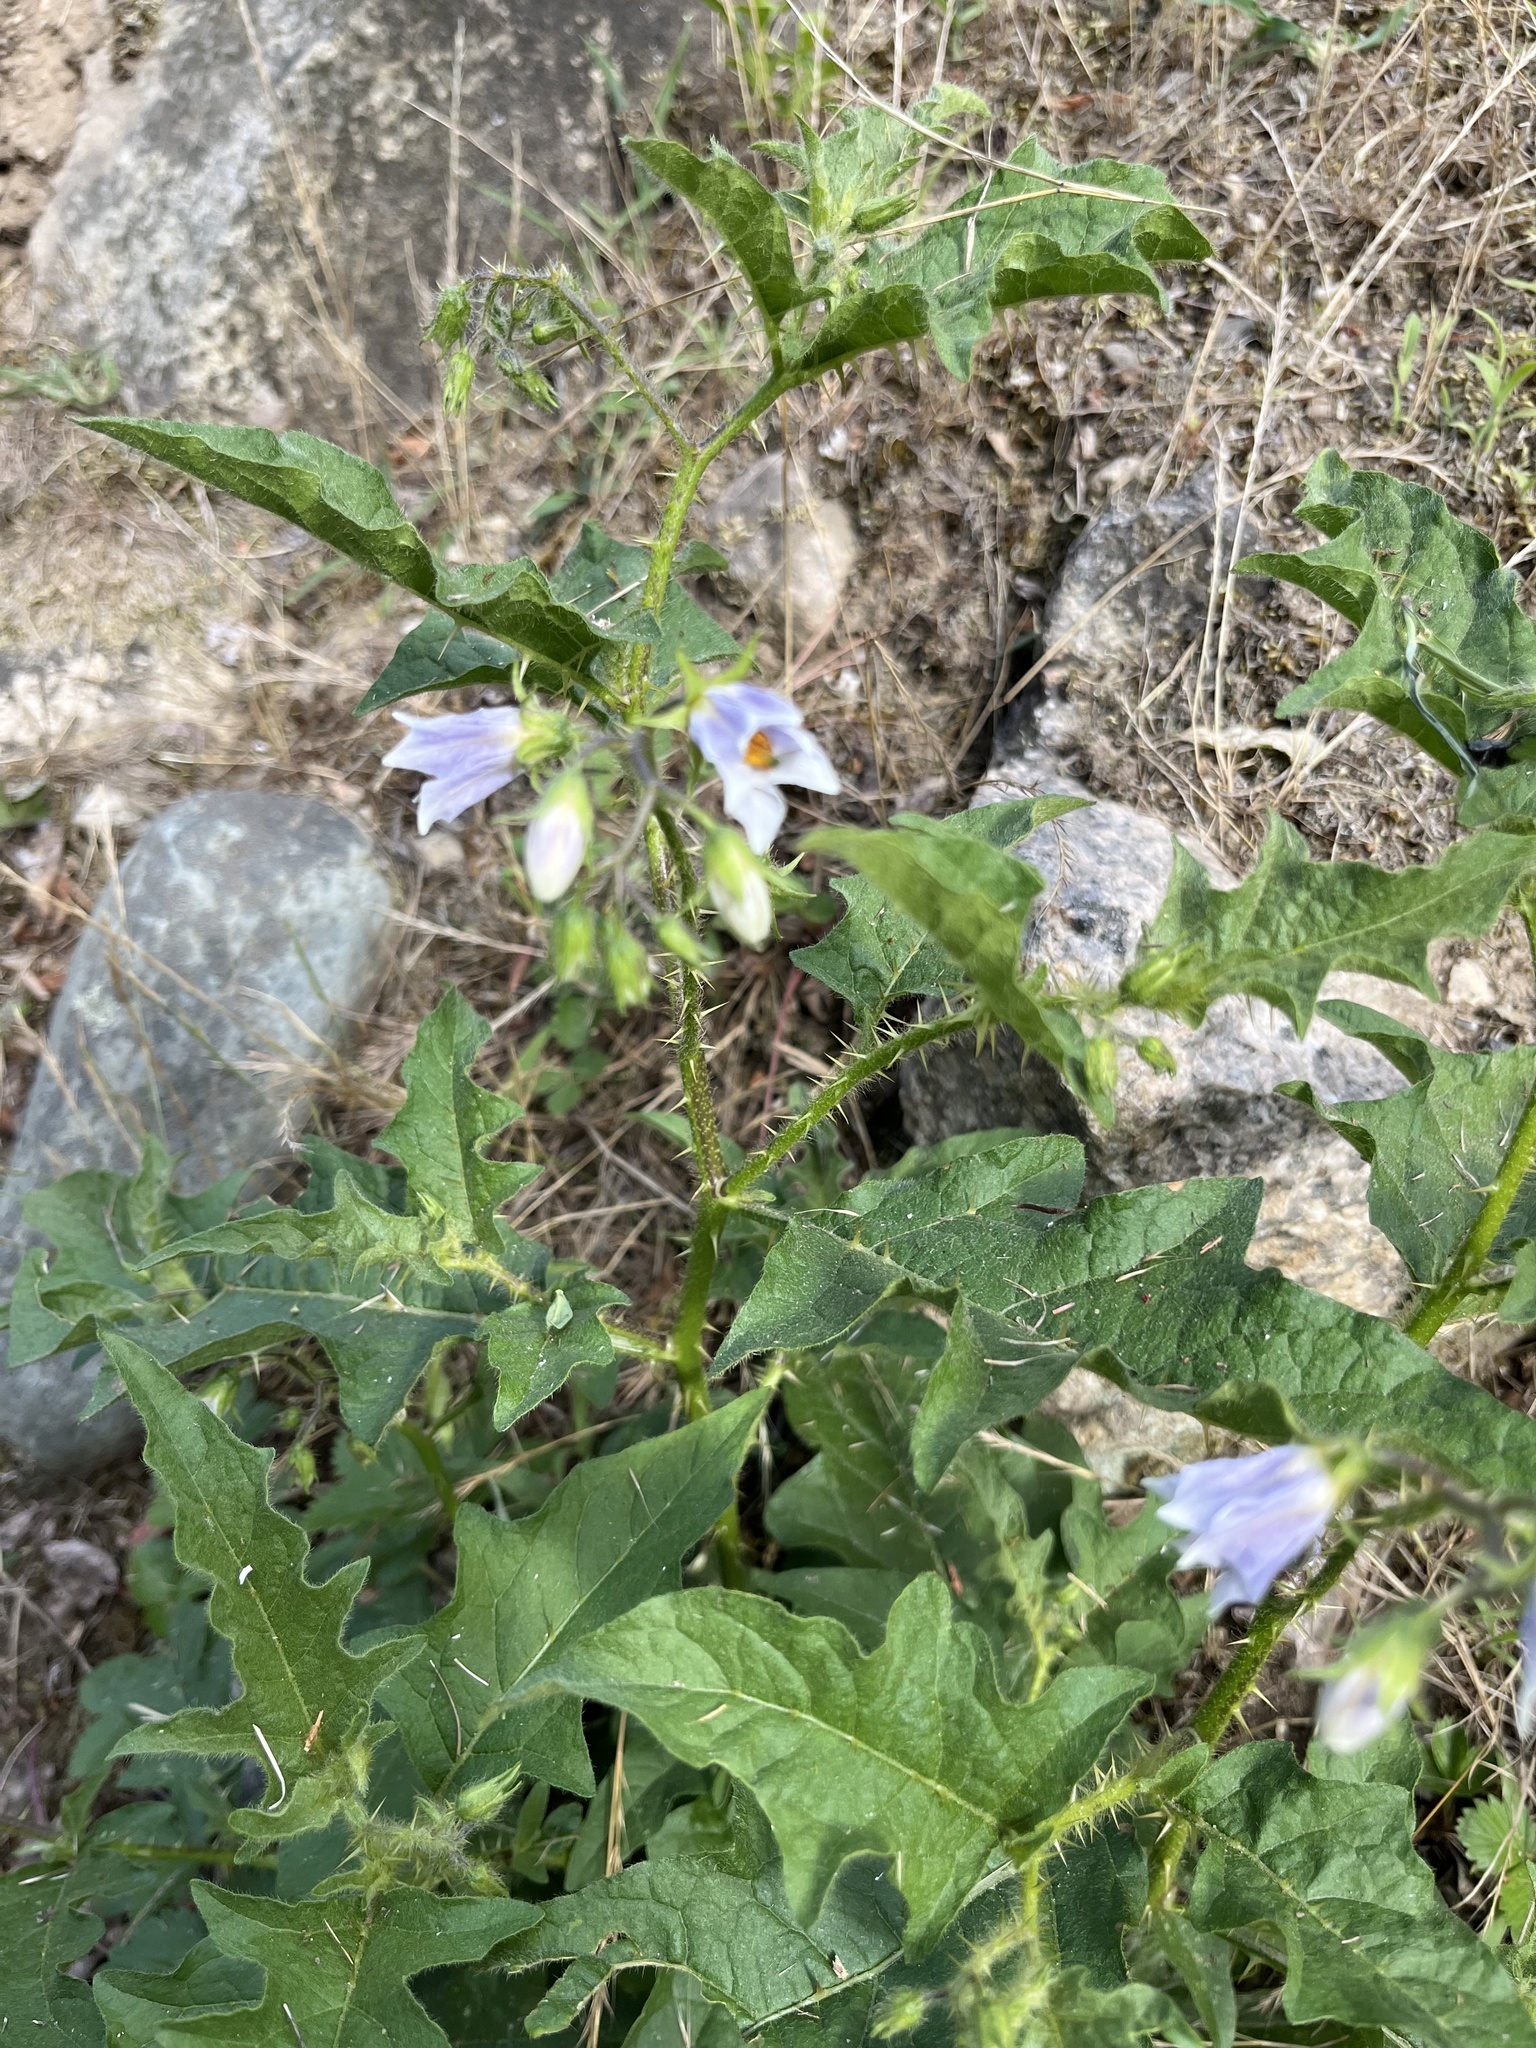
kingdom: Plantae
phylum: Tracheophyta
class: Magnoliopsida
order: Solanales
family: Solanaceae
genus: Solanum
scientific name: Solanum carolinense
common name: Horse-nettle
